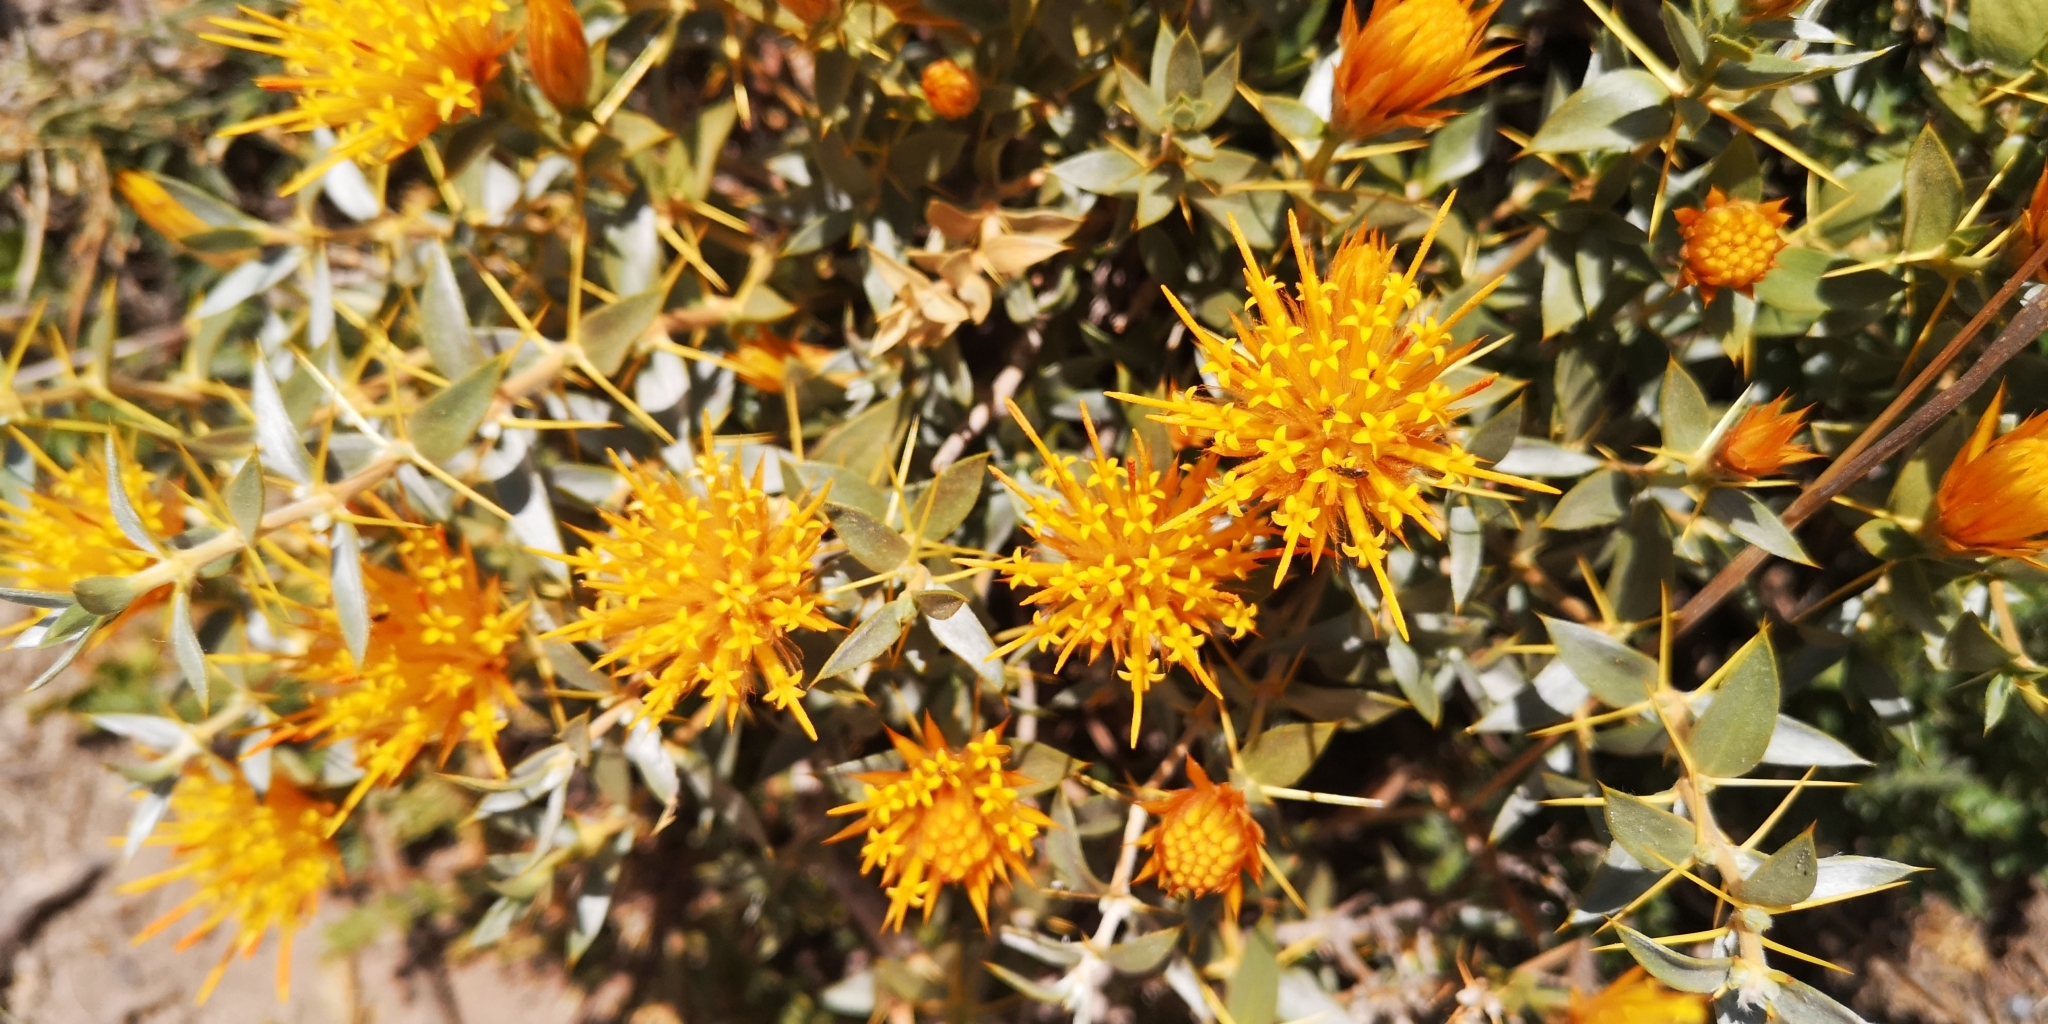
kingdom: Plantae
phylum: Tracheophyta
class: Magnoliopsida
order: Asterales
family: Asteraceae
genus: Chuquiraga
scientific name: Chuquiraga oppositifolia
